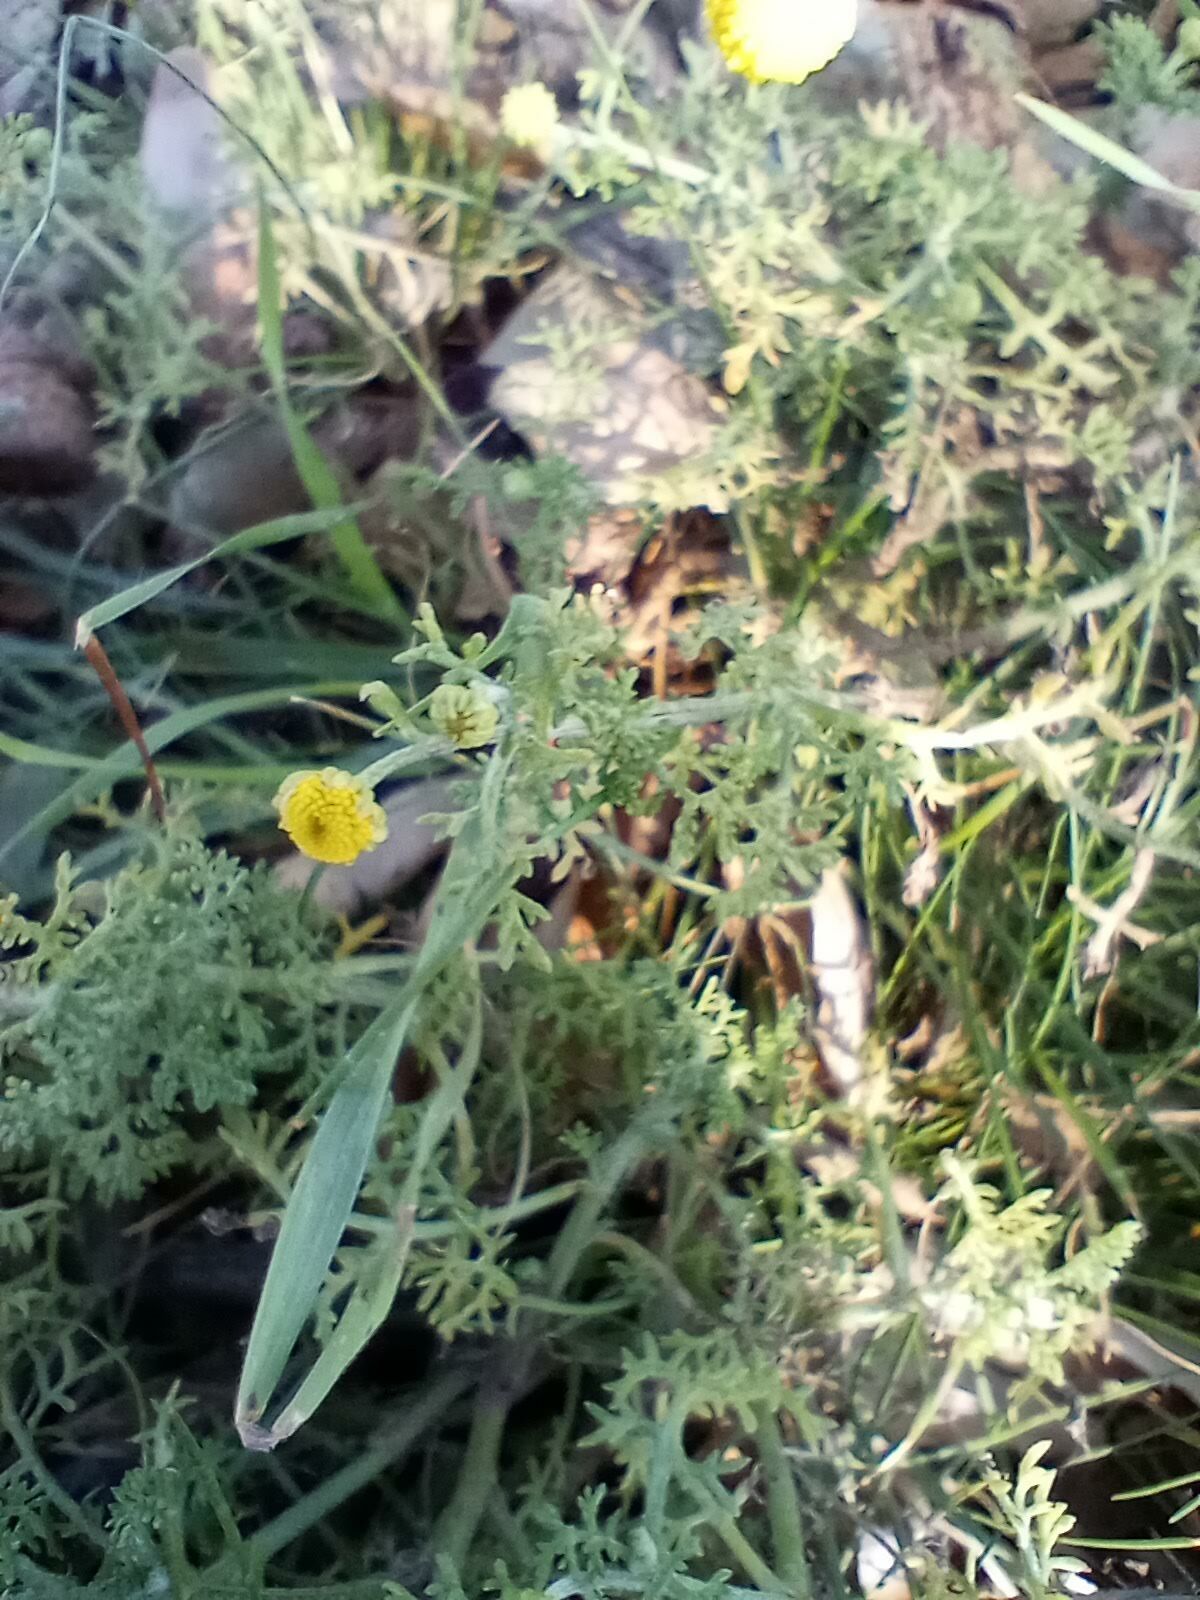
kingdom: Plantae
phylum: Tracheophyta
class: Magnoliopsida
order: Asterales
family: Asteraceae
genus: Oncosiphon
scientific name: Oncosiphon pilulifer
